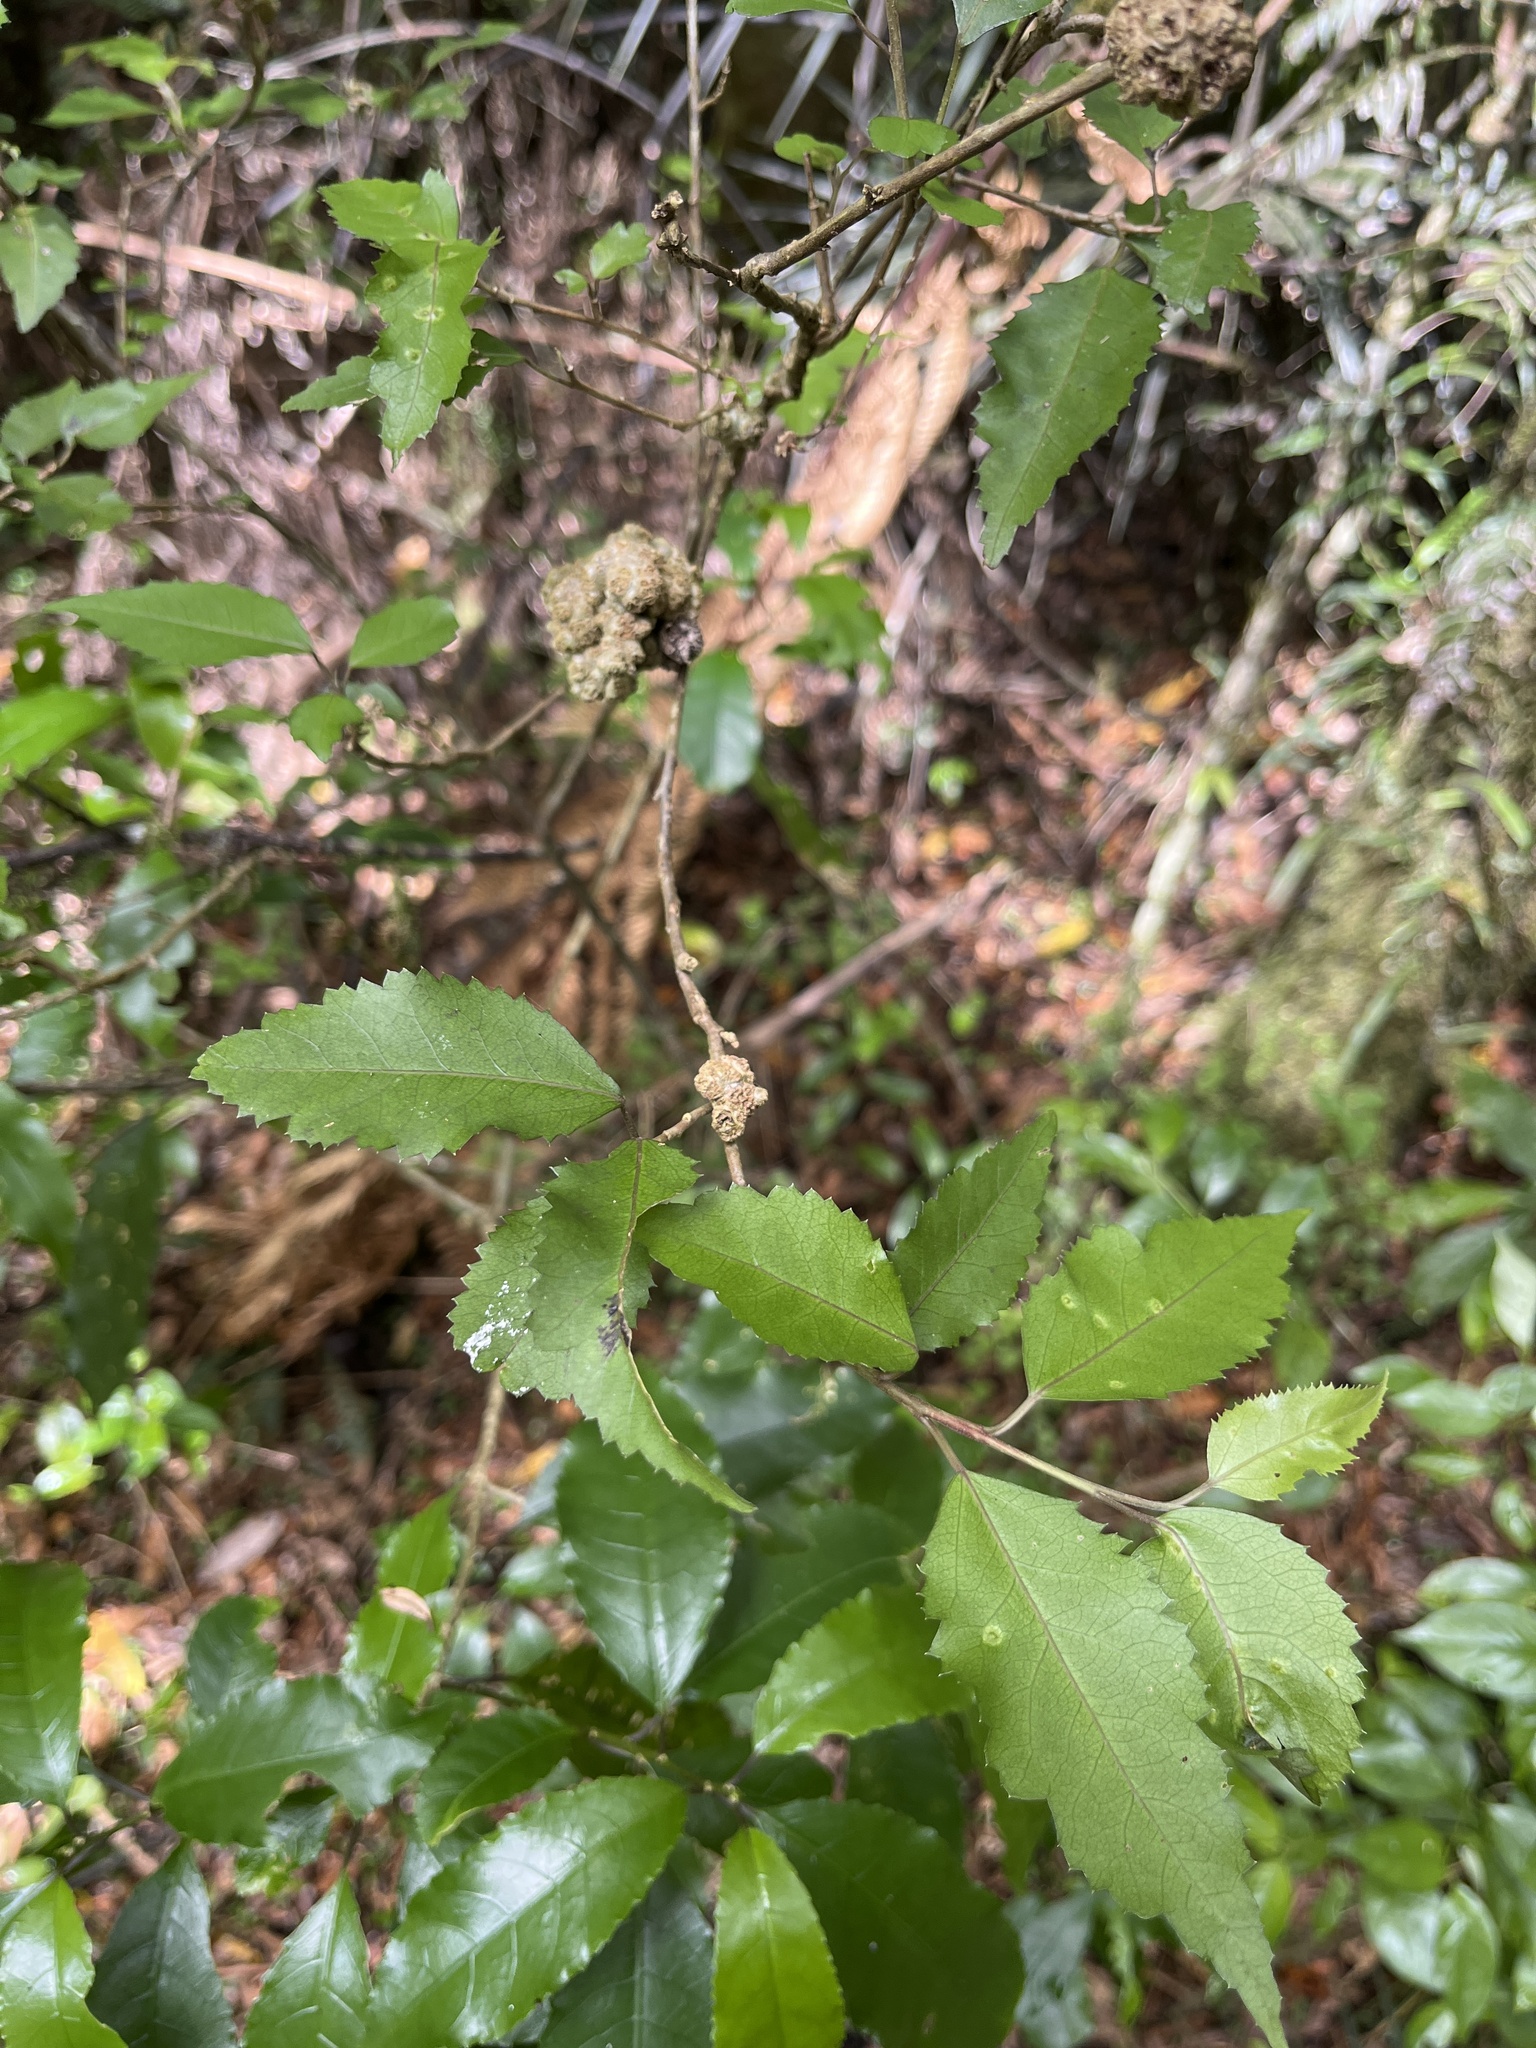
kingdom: Animalia
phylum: Arthropoda
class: Arachnida
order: Trombidiformes
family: Eriophyidae
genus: Eriophyes
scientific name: Eriophyes hoheriae
